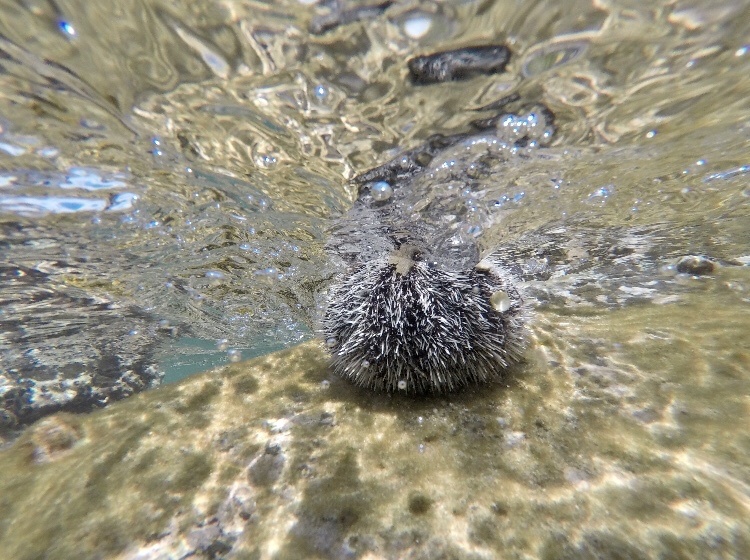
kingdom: Animalia
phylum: Echinodermata
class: Echinoidea
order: Camarodonta
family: Toxopneustidae
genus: Tripneustes
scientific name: Tripneustes ventricosus
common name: West indian sea egg
